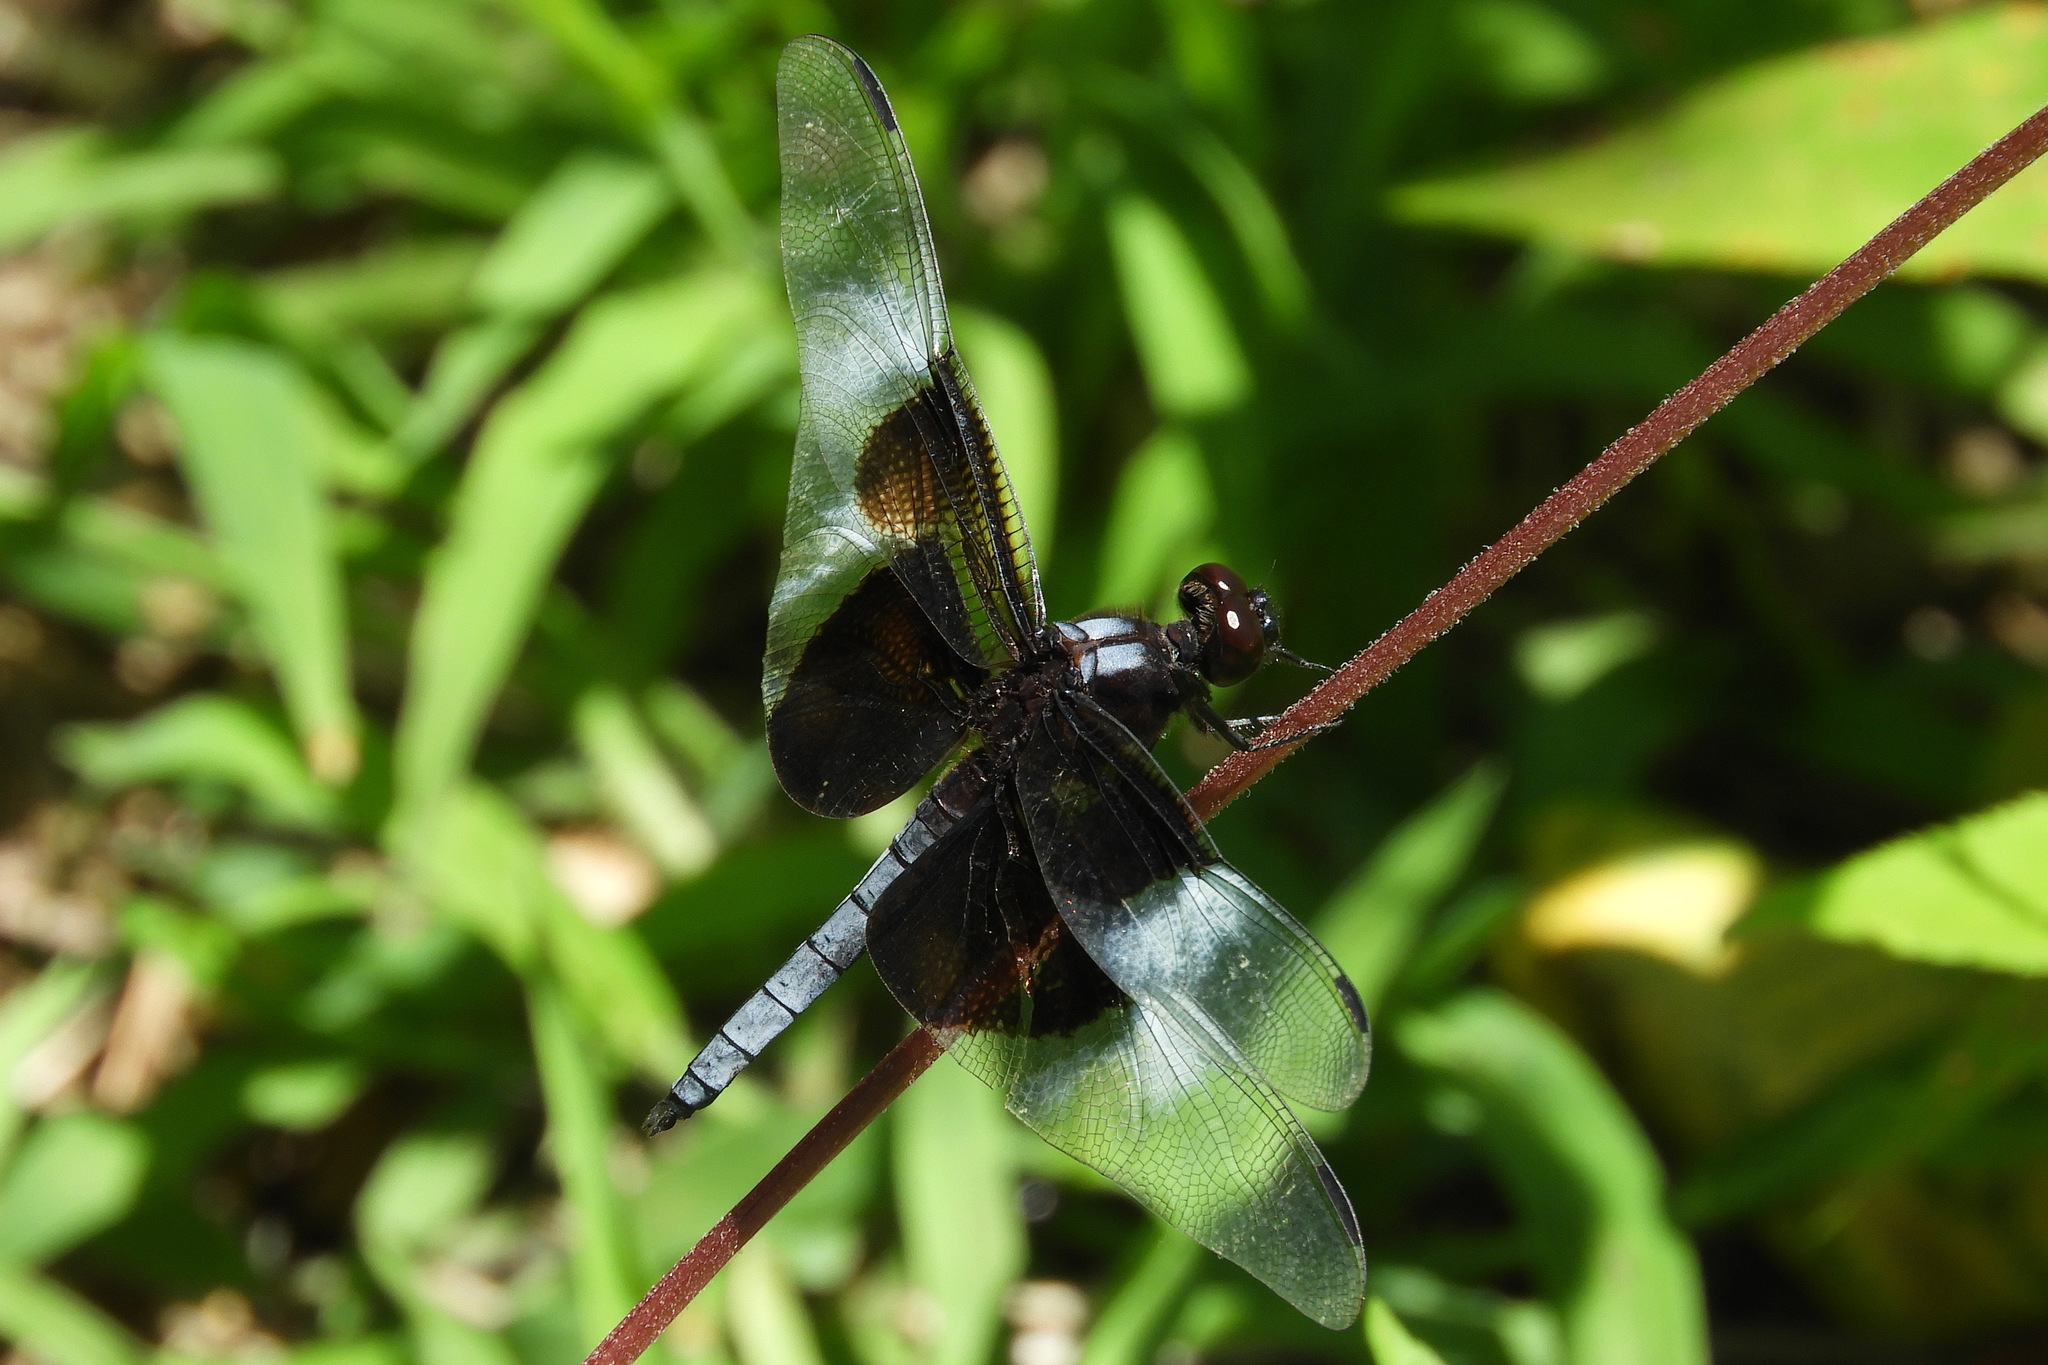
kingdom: Animalia
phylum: Arthropoda
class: Insecta
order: Odonata
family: Libellulidae
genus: Libellula
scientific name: Libellula luctuosa
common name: Widow skimmer
